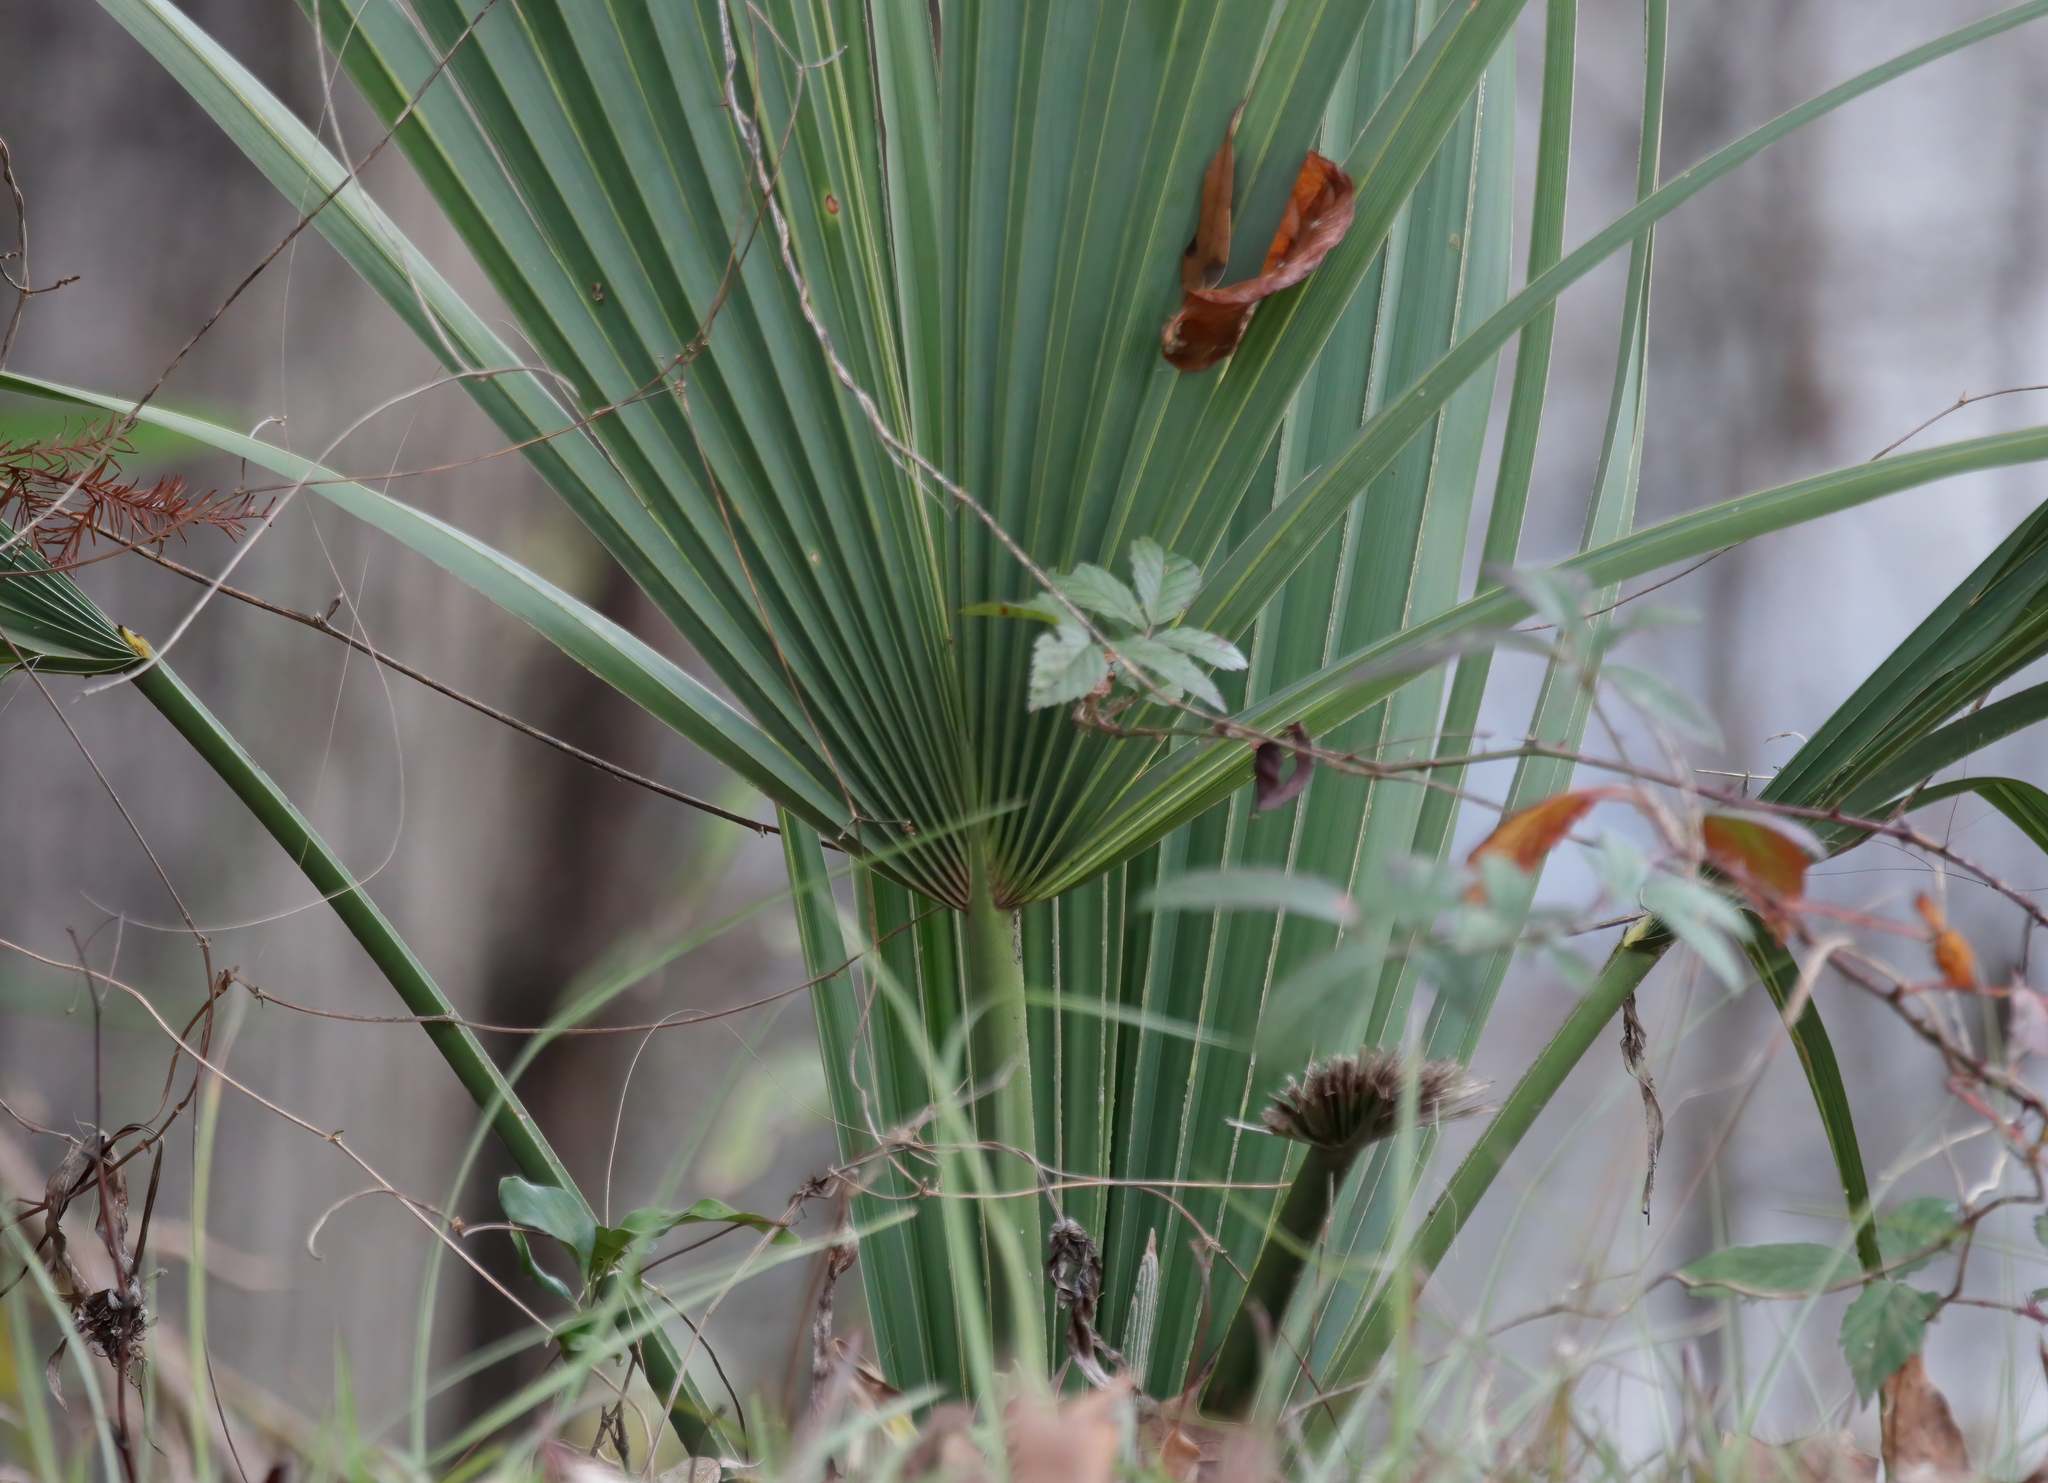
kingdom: Plantae
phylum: Tracheophyta
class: Liliopsida
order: Arecales
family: Arecaceae
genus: Sabal
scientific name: Sabal minor
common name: Dwarf palmetto
